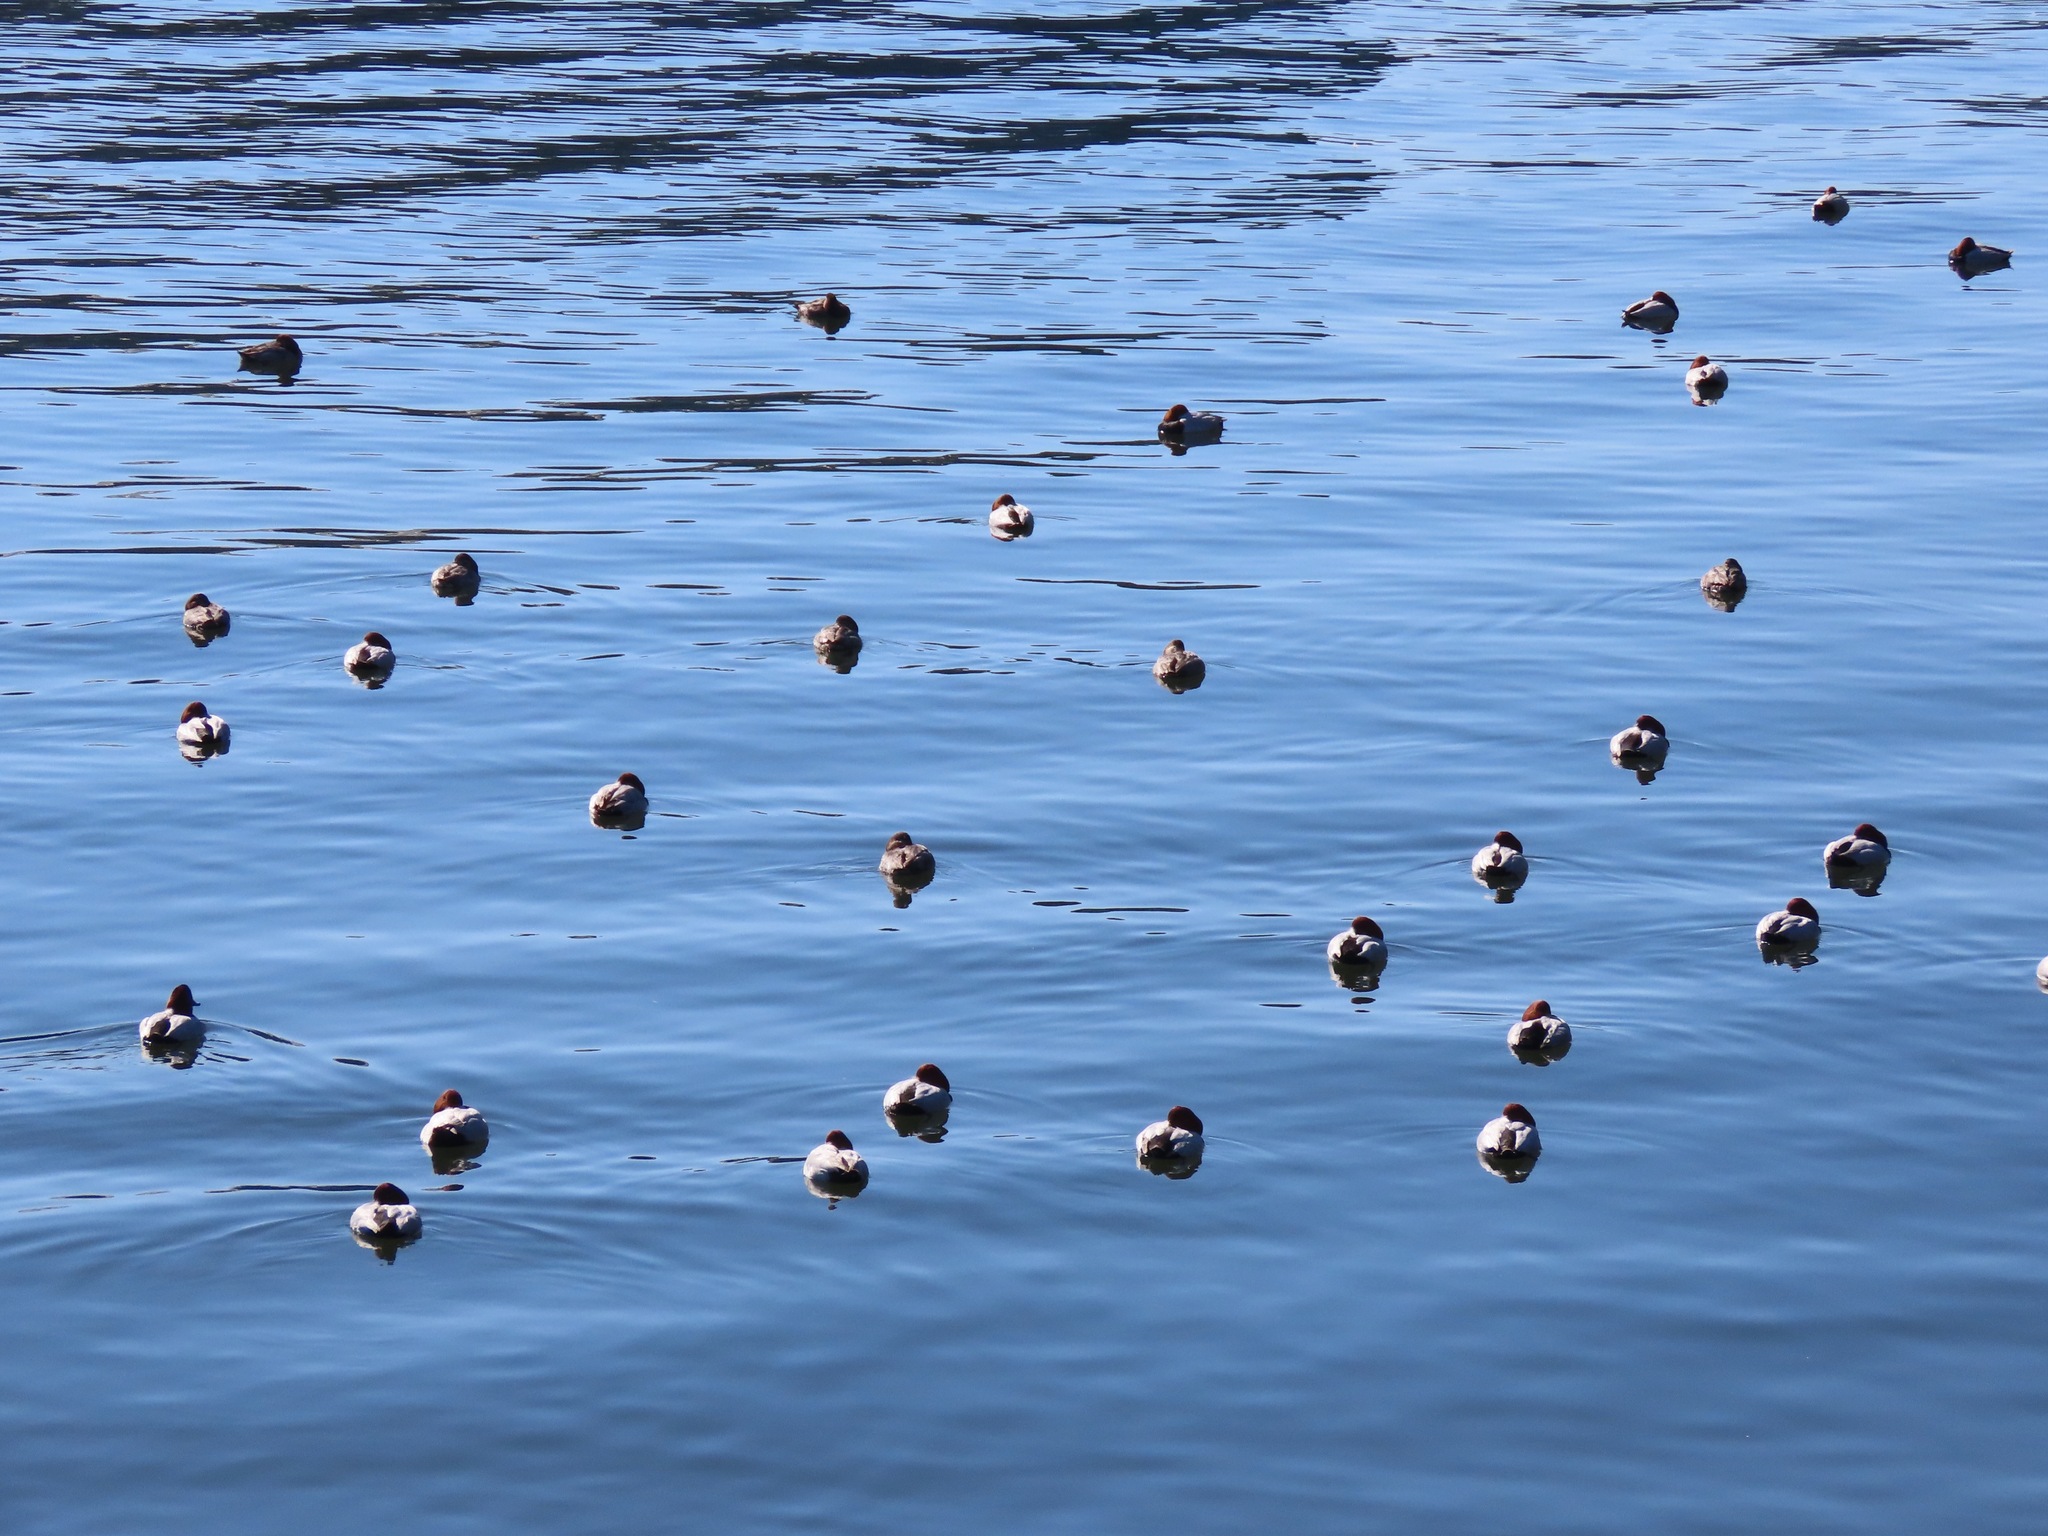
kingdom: Animalia
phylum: Chordata
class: Aves
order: Anseriformes
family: Anatidae
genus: Aythya
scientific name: Aythya ferina
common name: Common pochard
